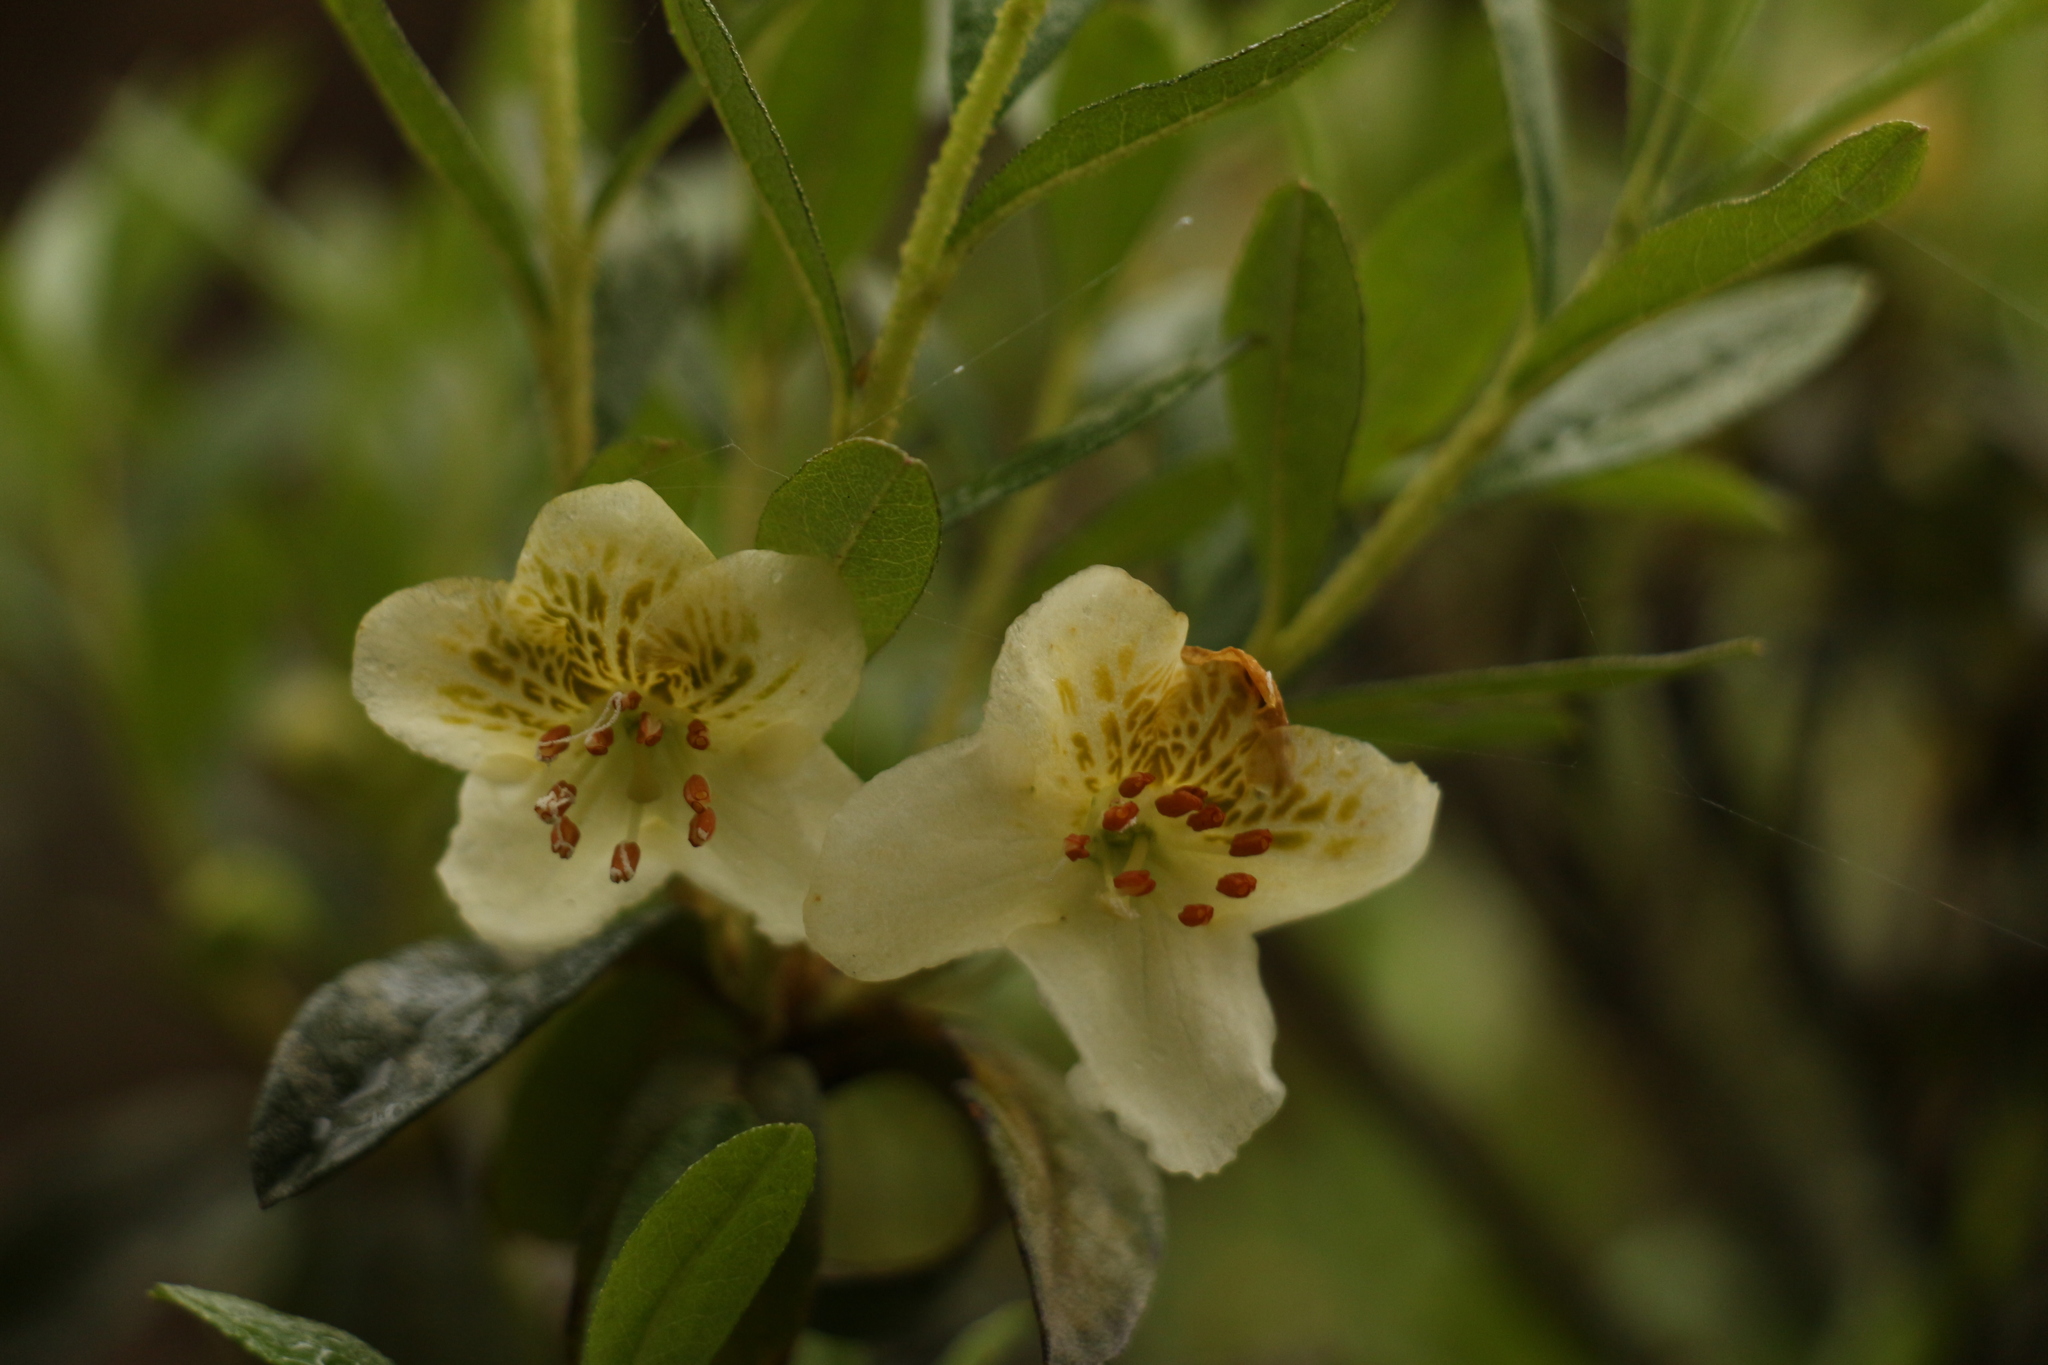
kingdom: Plantae
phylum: Tracheophyta
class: Magnoliopsida
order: Ericales
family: Ericaceae
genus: Rhododendron
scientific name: Rhododendron lepidotum
